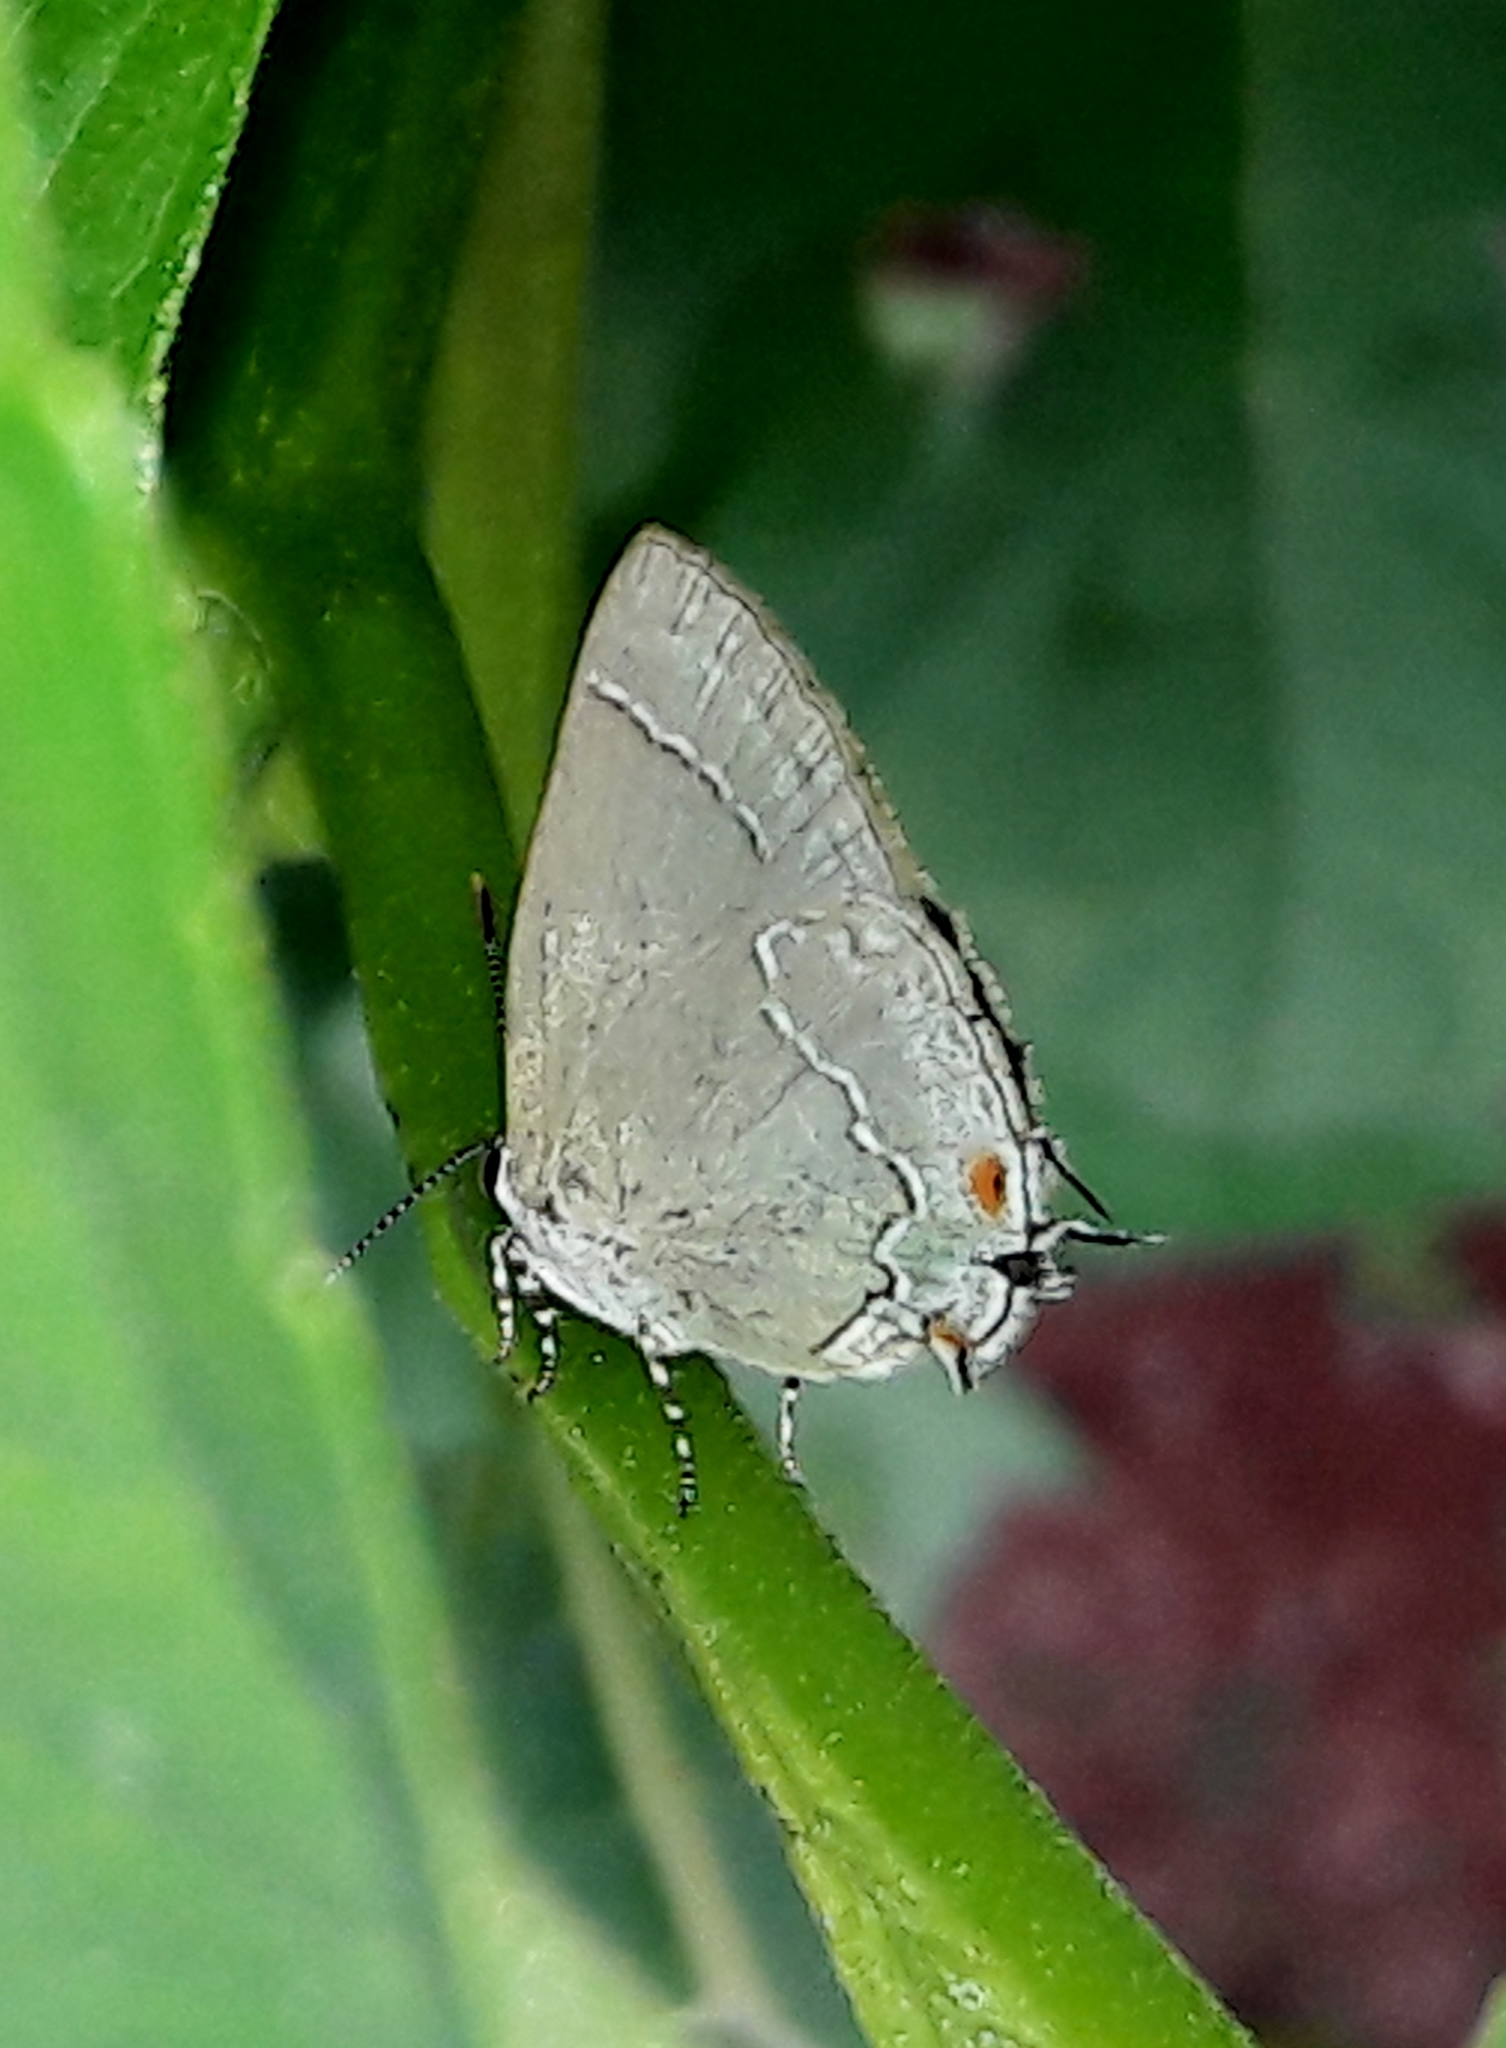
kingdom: Animalia
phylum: Arthropoda
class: Insecta
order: Lepidoptera
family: Lycaenidae
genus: Thecla
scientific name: Thecla empusa
